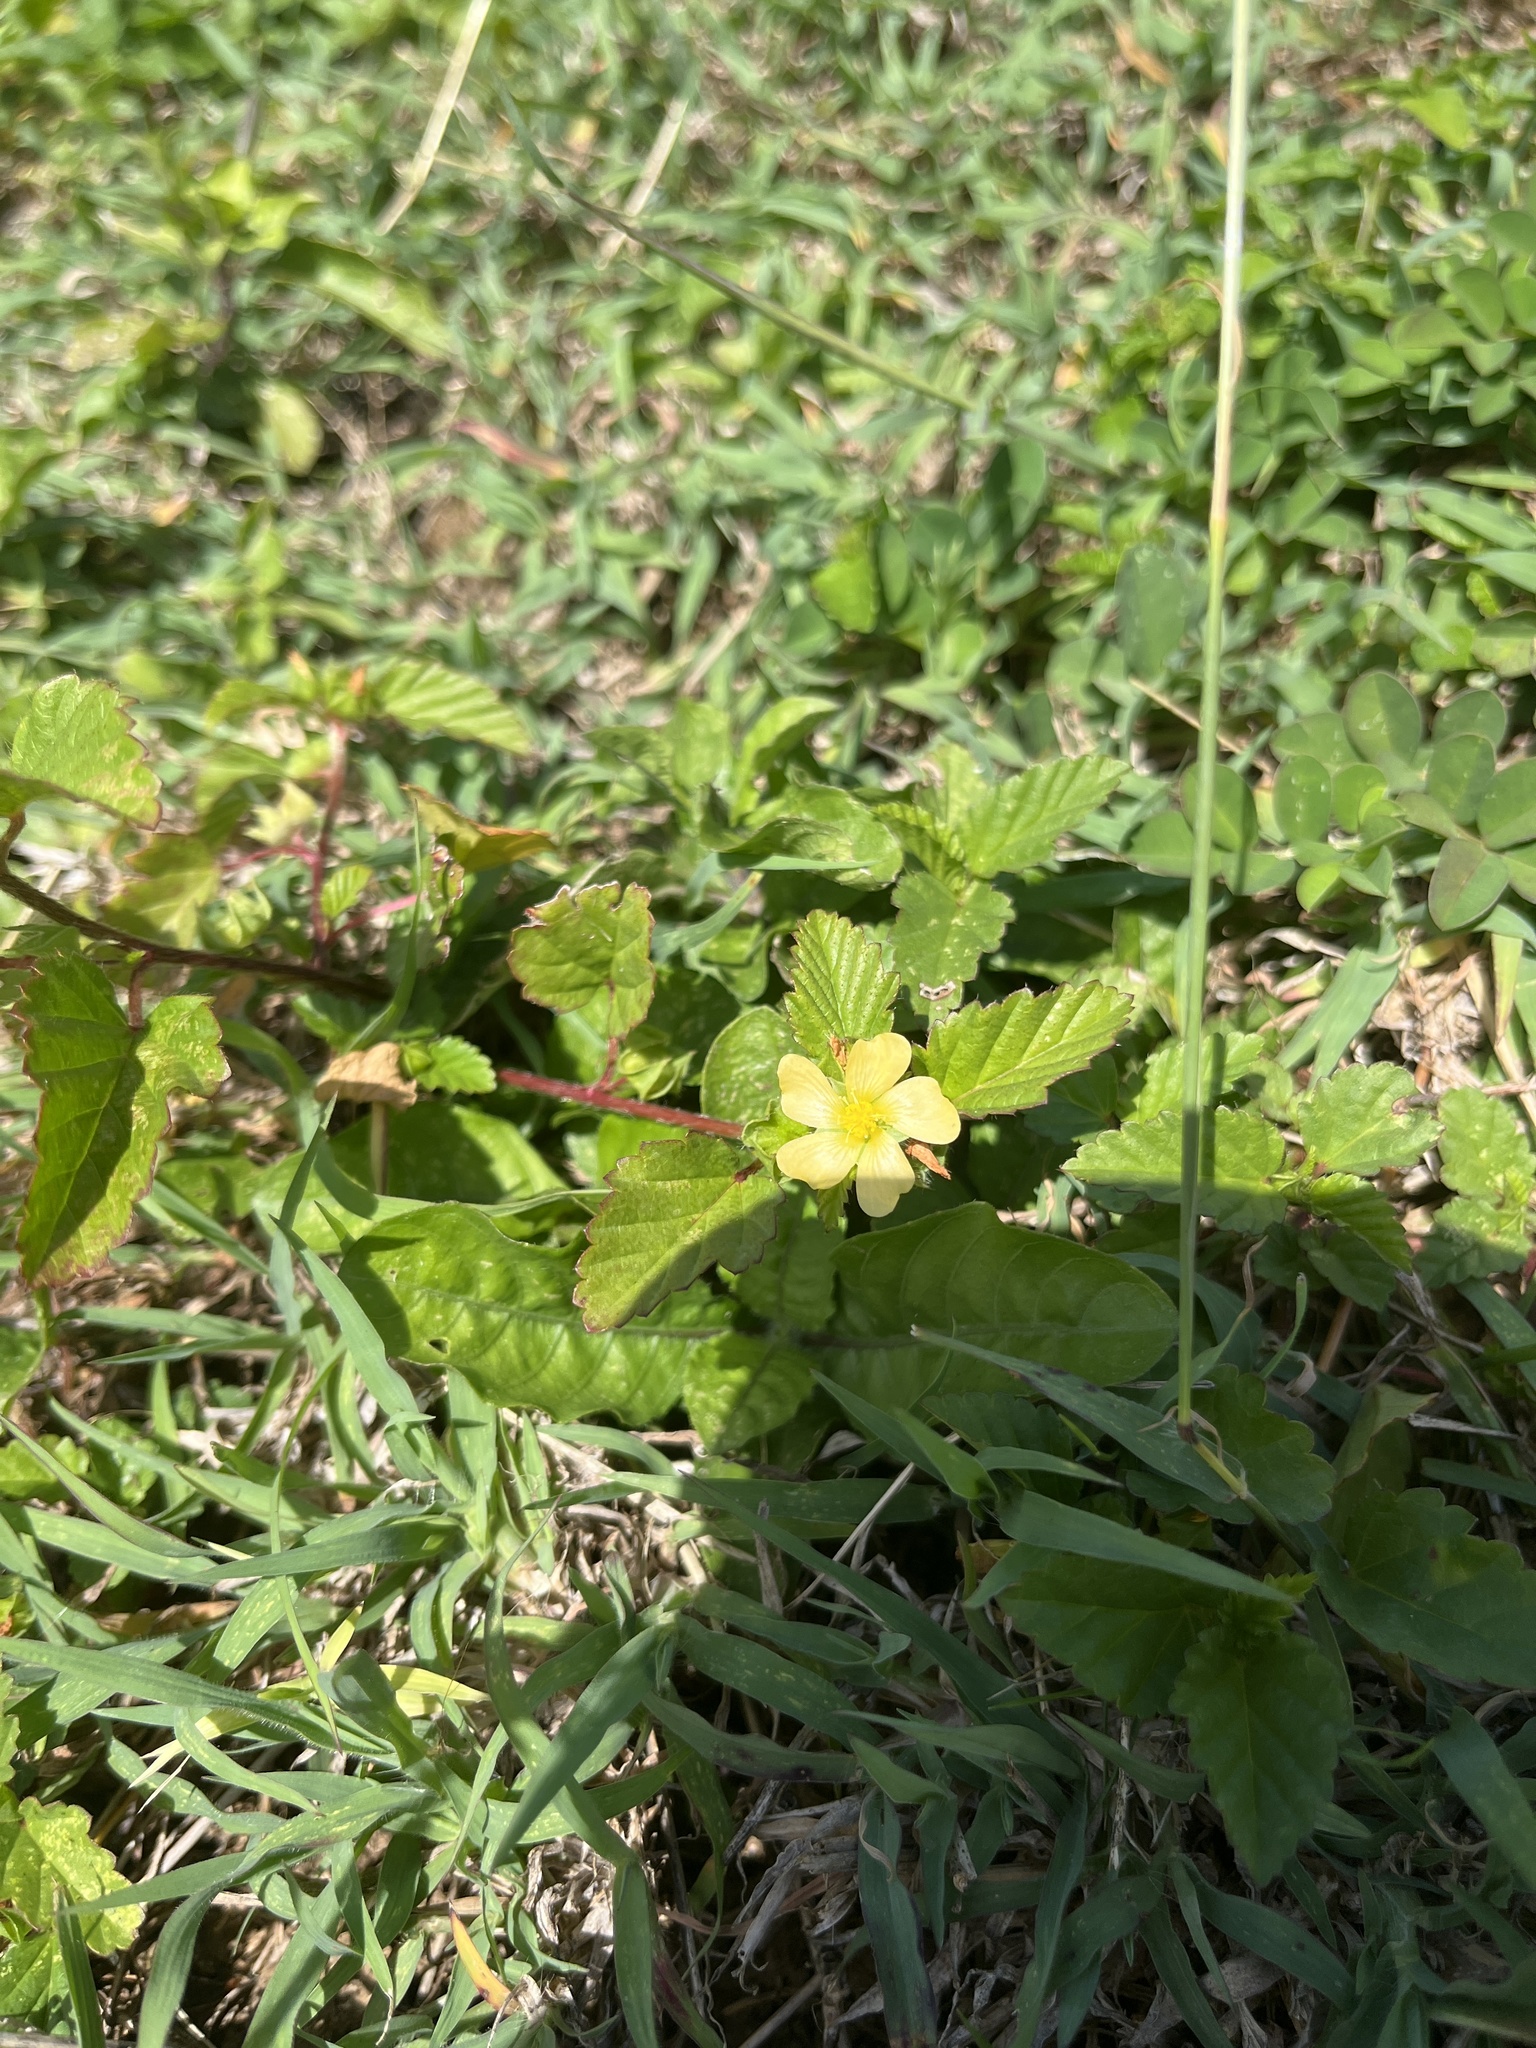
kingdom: Plantae
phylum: Tracheophyta
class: Magnoliopsida
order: Malvales
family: Malvaceae
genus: Malvastrum
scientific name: Malvastrum coromandelianum
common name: Threelobe false mallow
